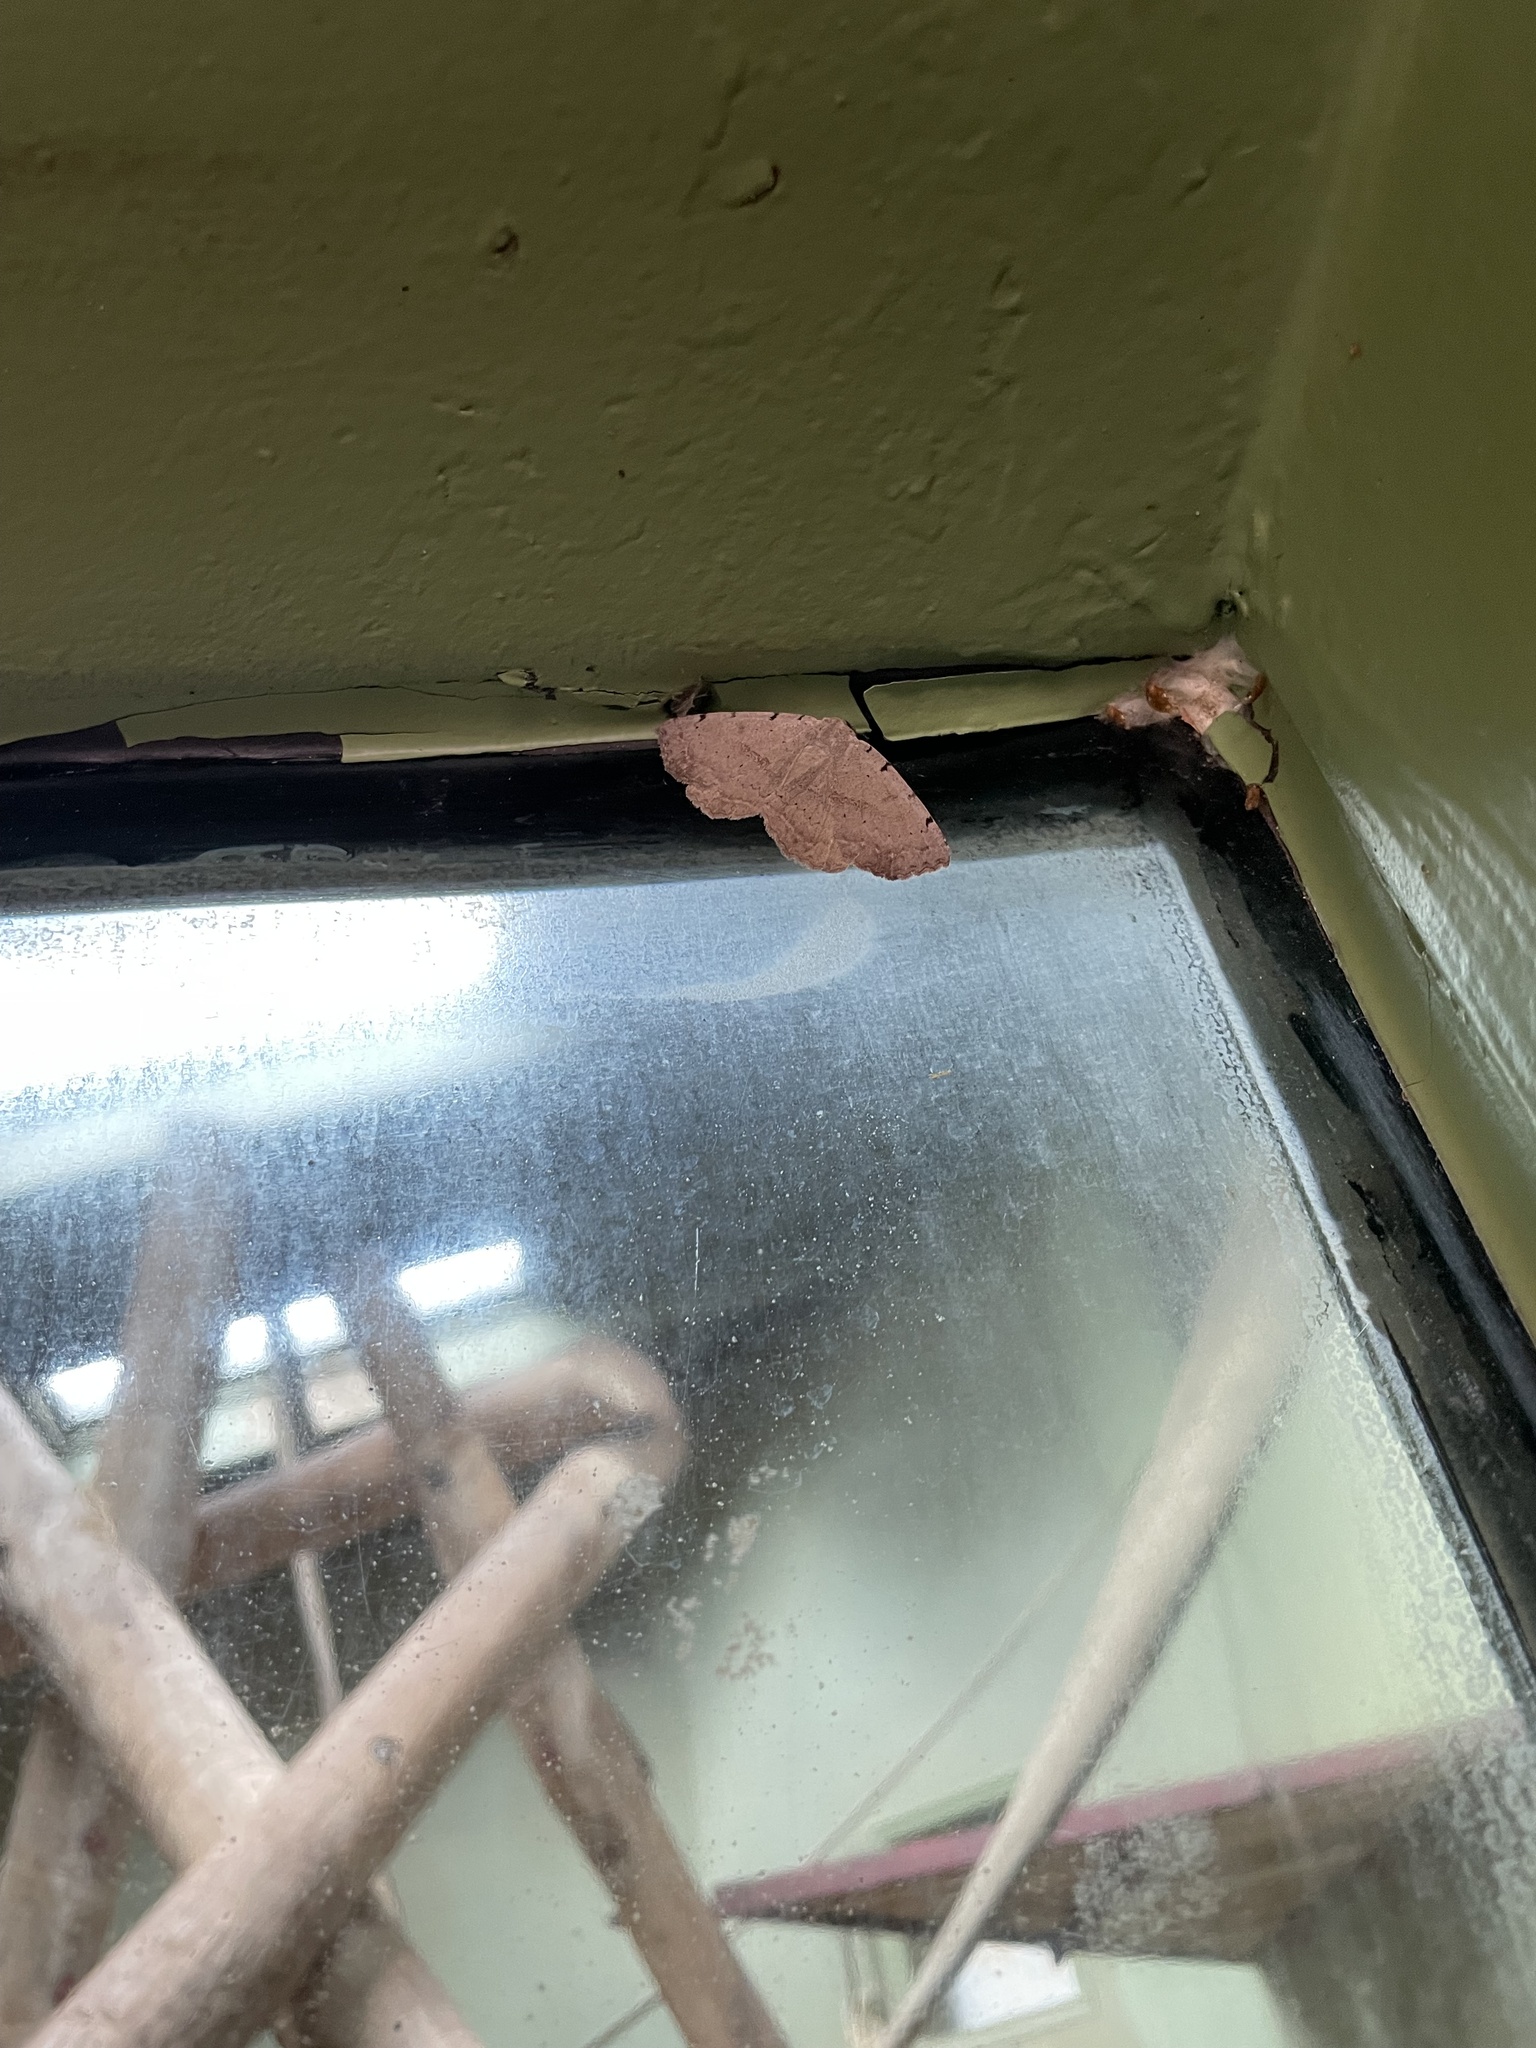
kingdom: Animalia
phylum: Arthropoda
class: Insecta
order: Lepidoptera
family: Erebidae
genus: Spiloloma
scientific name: Spiloloma lunilinea
